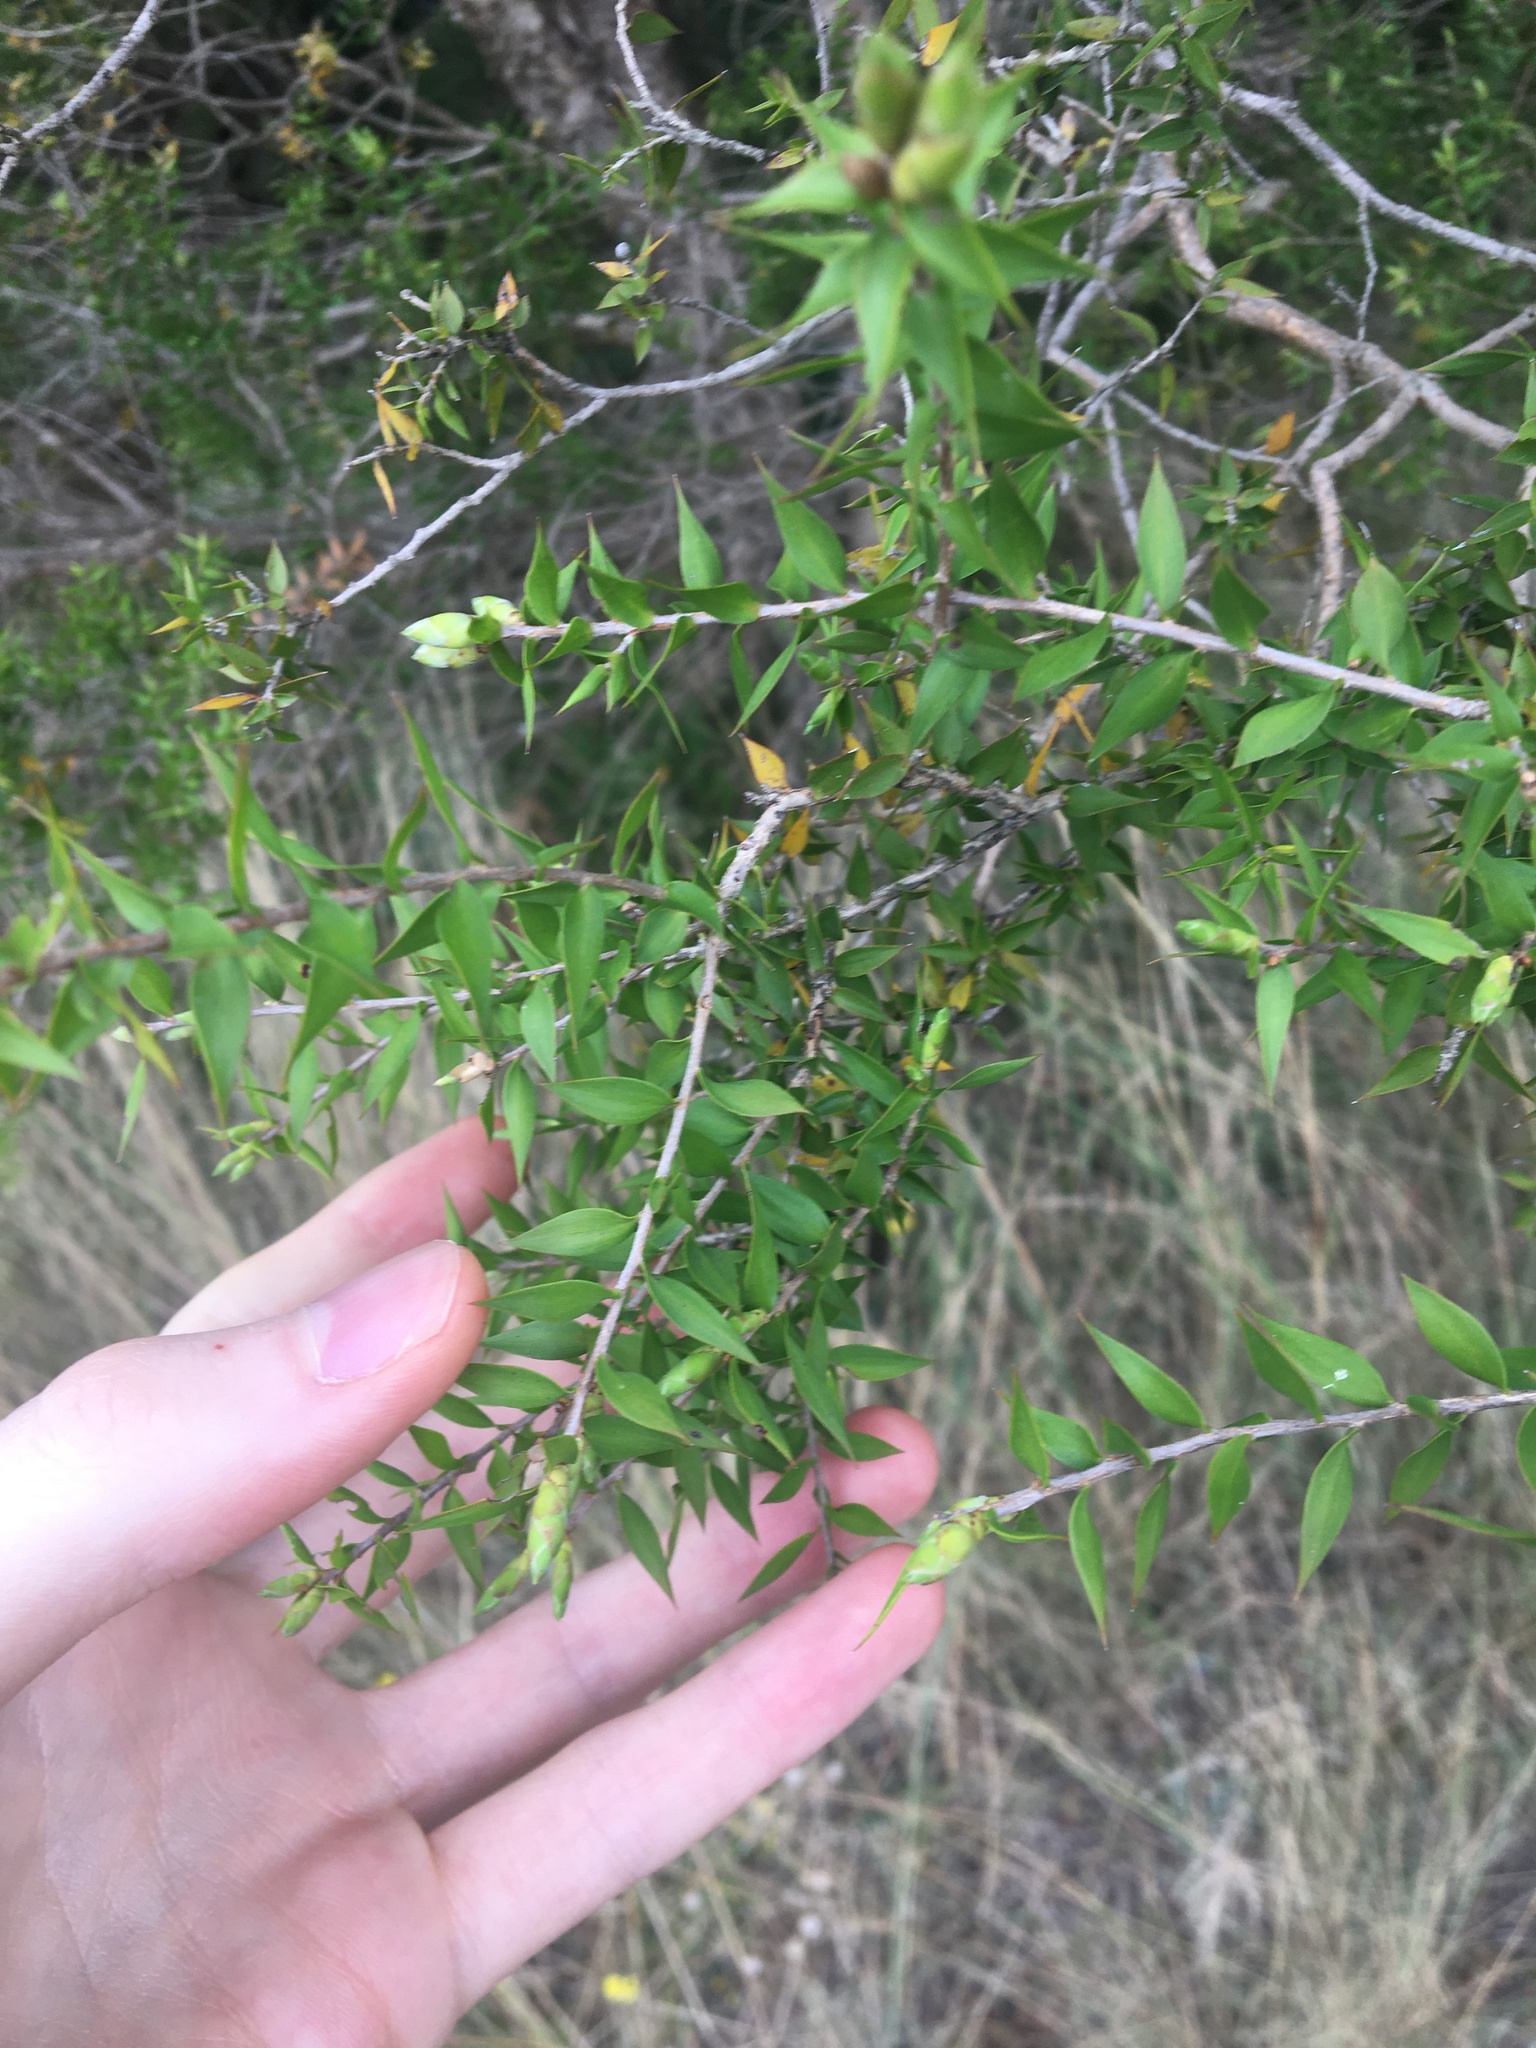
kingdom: Plantae
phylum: Tracheophyta
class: Magnoliopsida
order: Myrtales
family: Myrtaceae
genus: Melaleuca
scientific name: Melaleuca styphelioides
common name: Prickly paperbark
